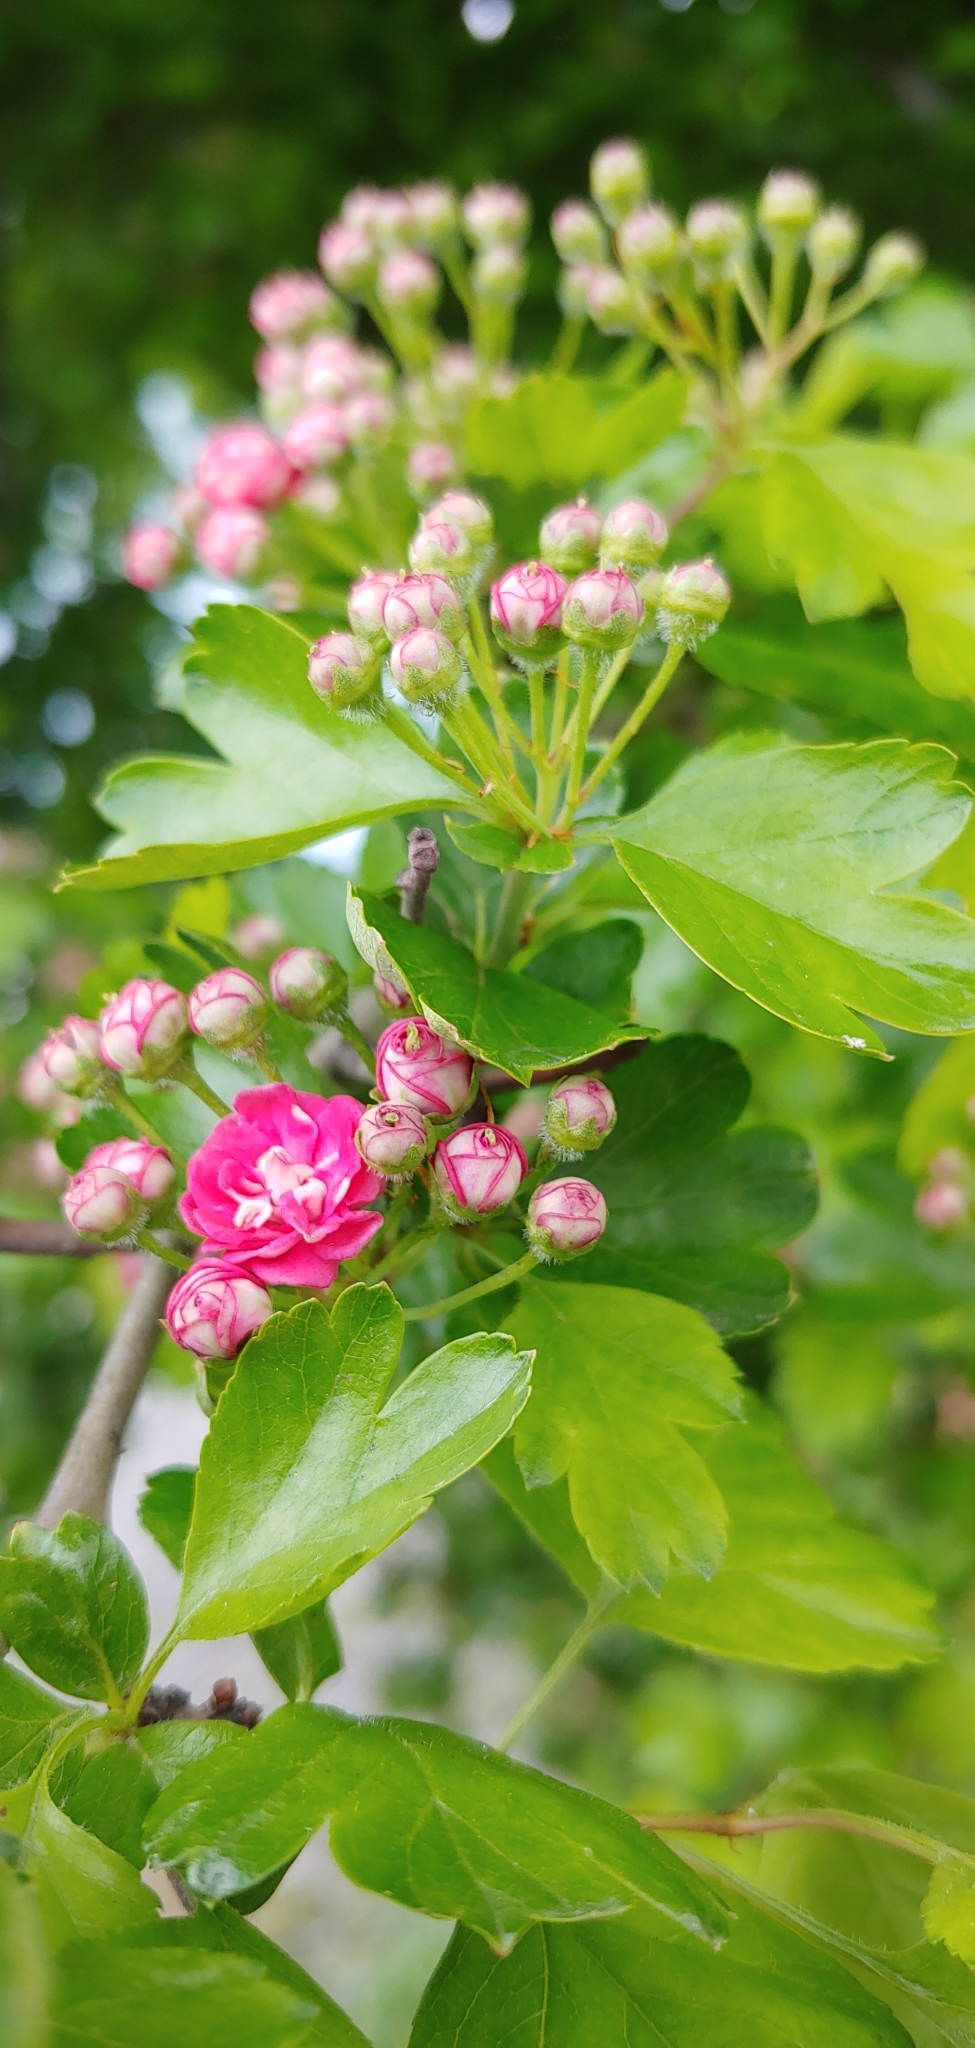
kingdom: Plantae
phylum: Tracheophyta
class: Magnoliopsida
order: Rosales
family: Rosaceae
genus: Crataegus
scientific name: Crataegus monogyna
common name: Hawthorn
